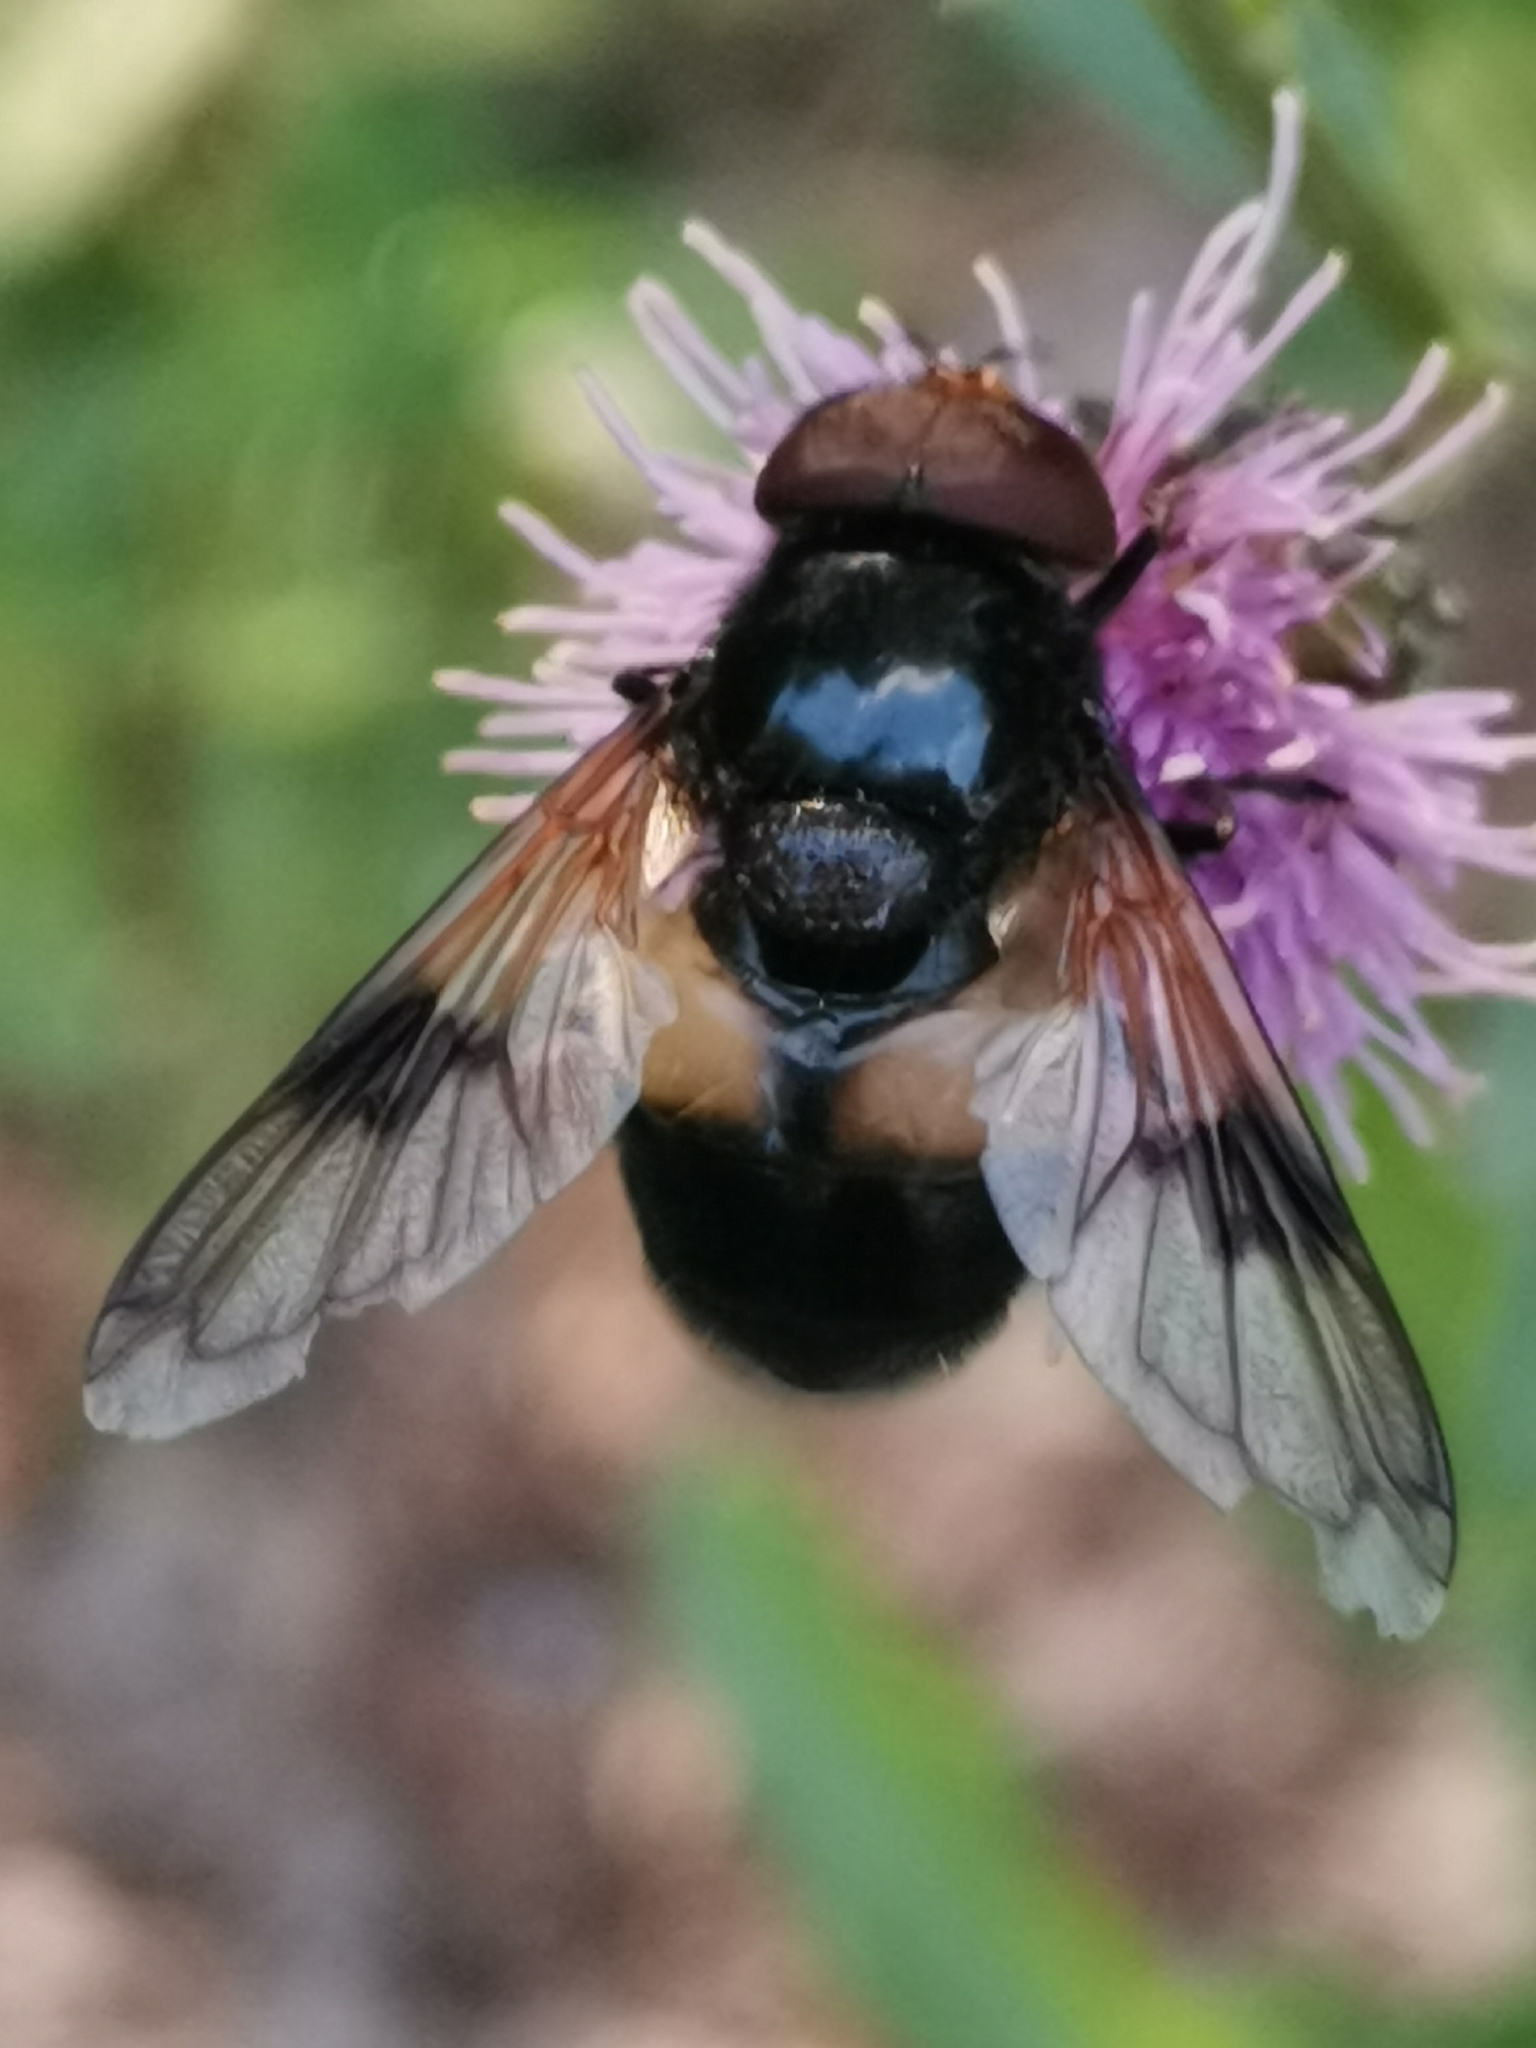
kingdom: Animalia
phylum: Arthropoda
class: Insecta
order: Diptera
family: Syrphidae
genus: Volucella
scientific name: Volucella pellucens
